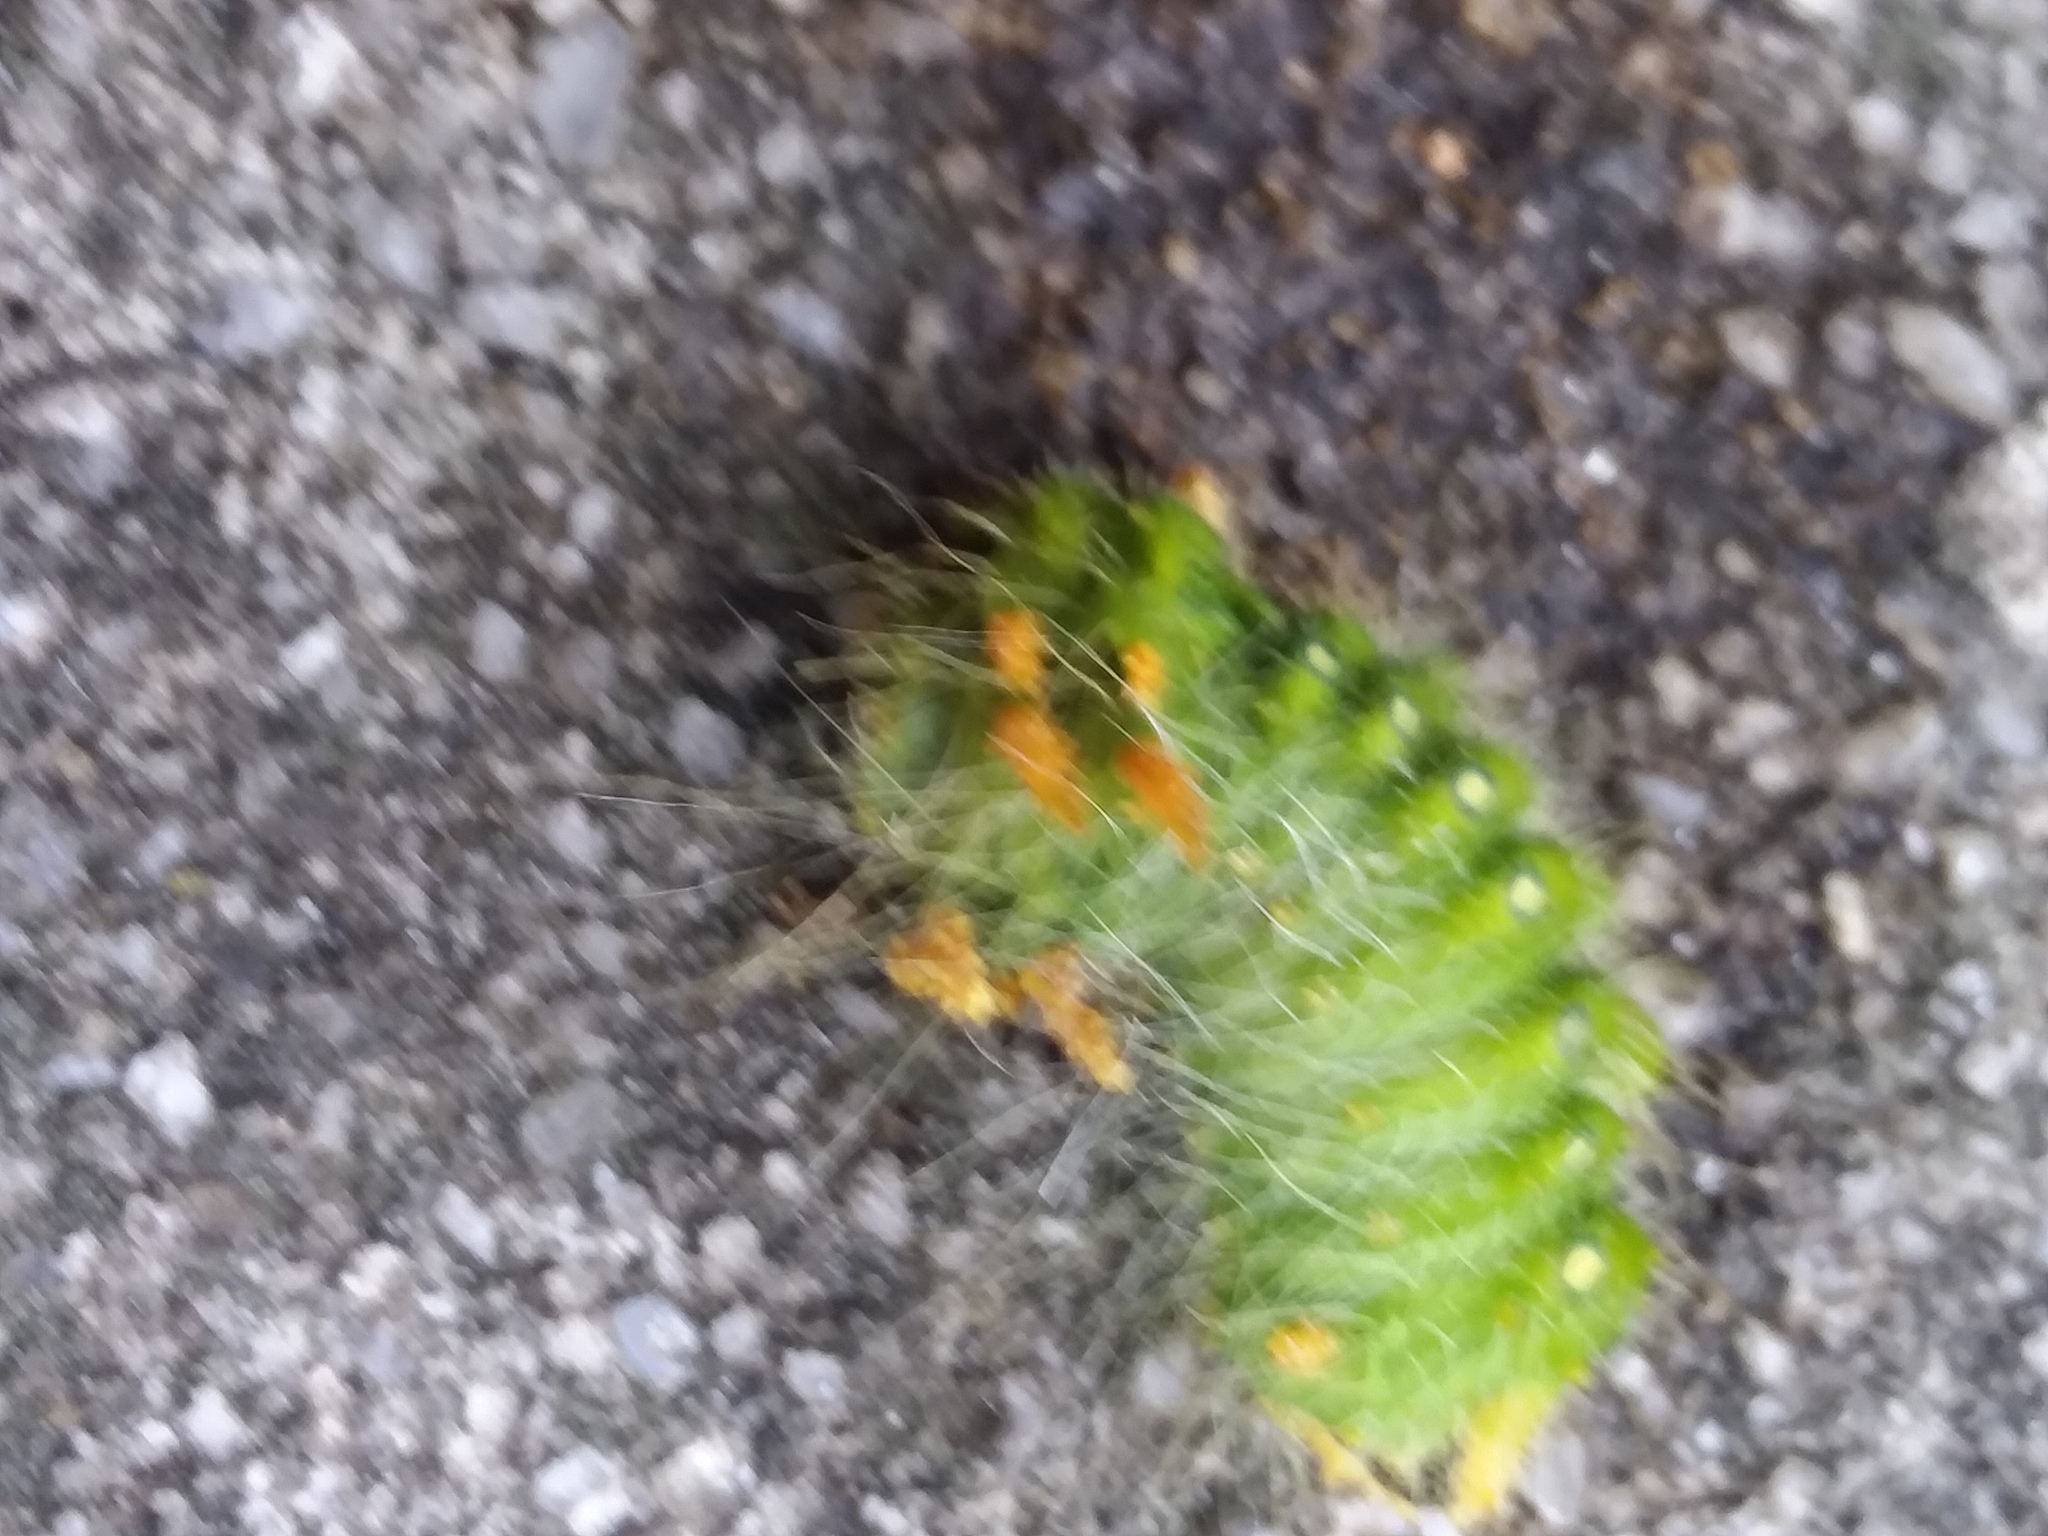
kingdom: Animalia
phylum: Arthropoda
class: Insecta
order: Lepidoptera
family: Saturniidae
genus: Eacles
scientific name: Eacles imperialis
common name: Imperial moth
